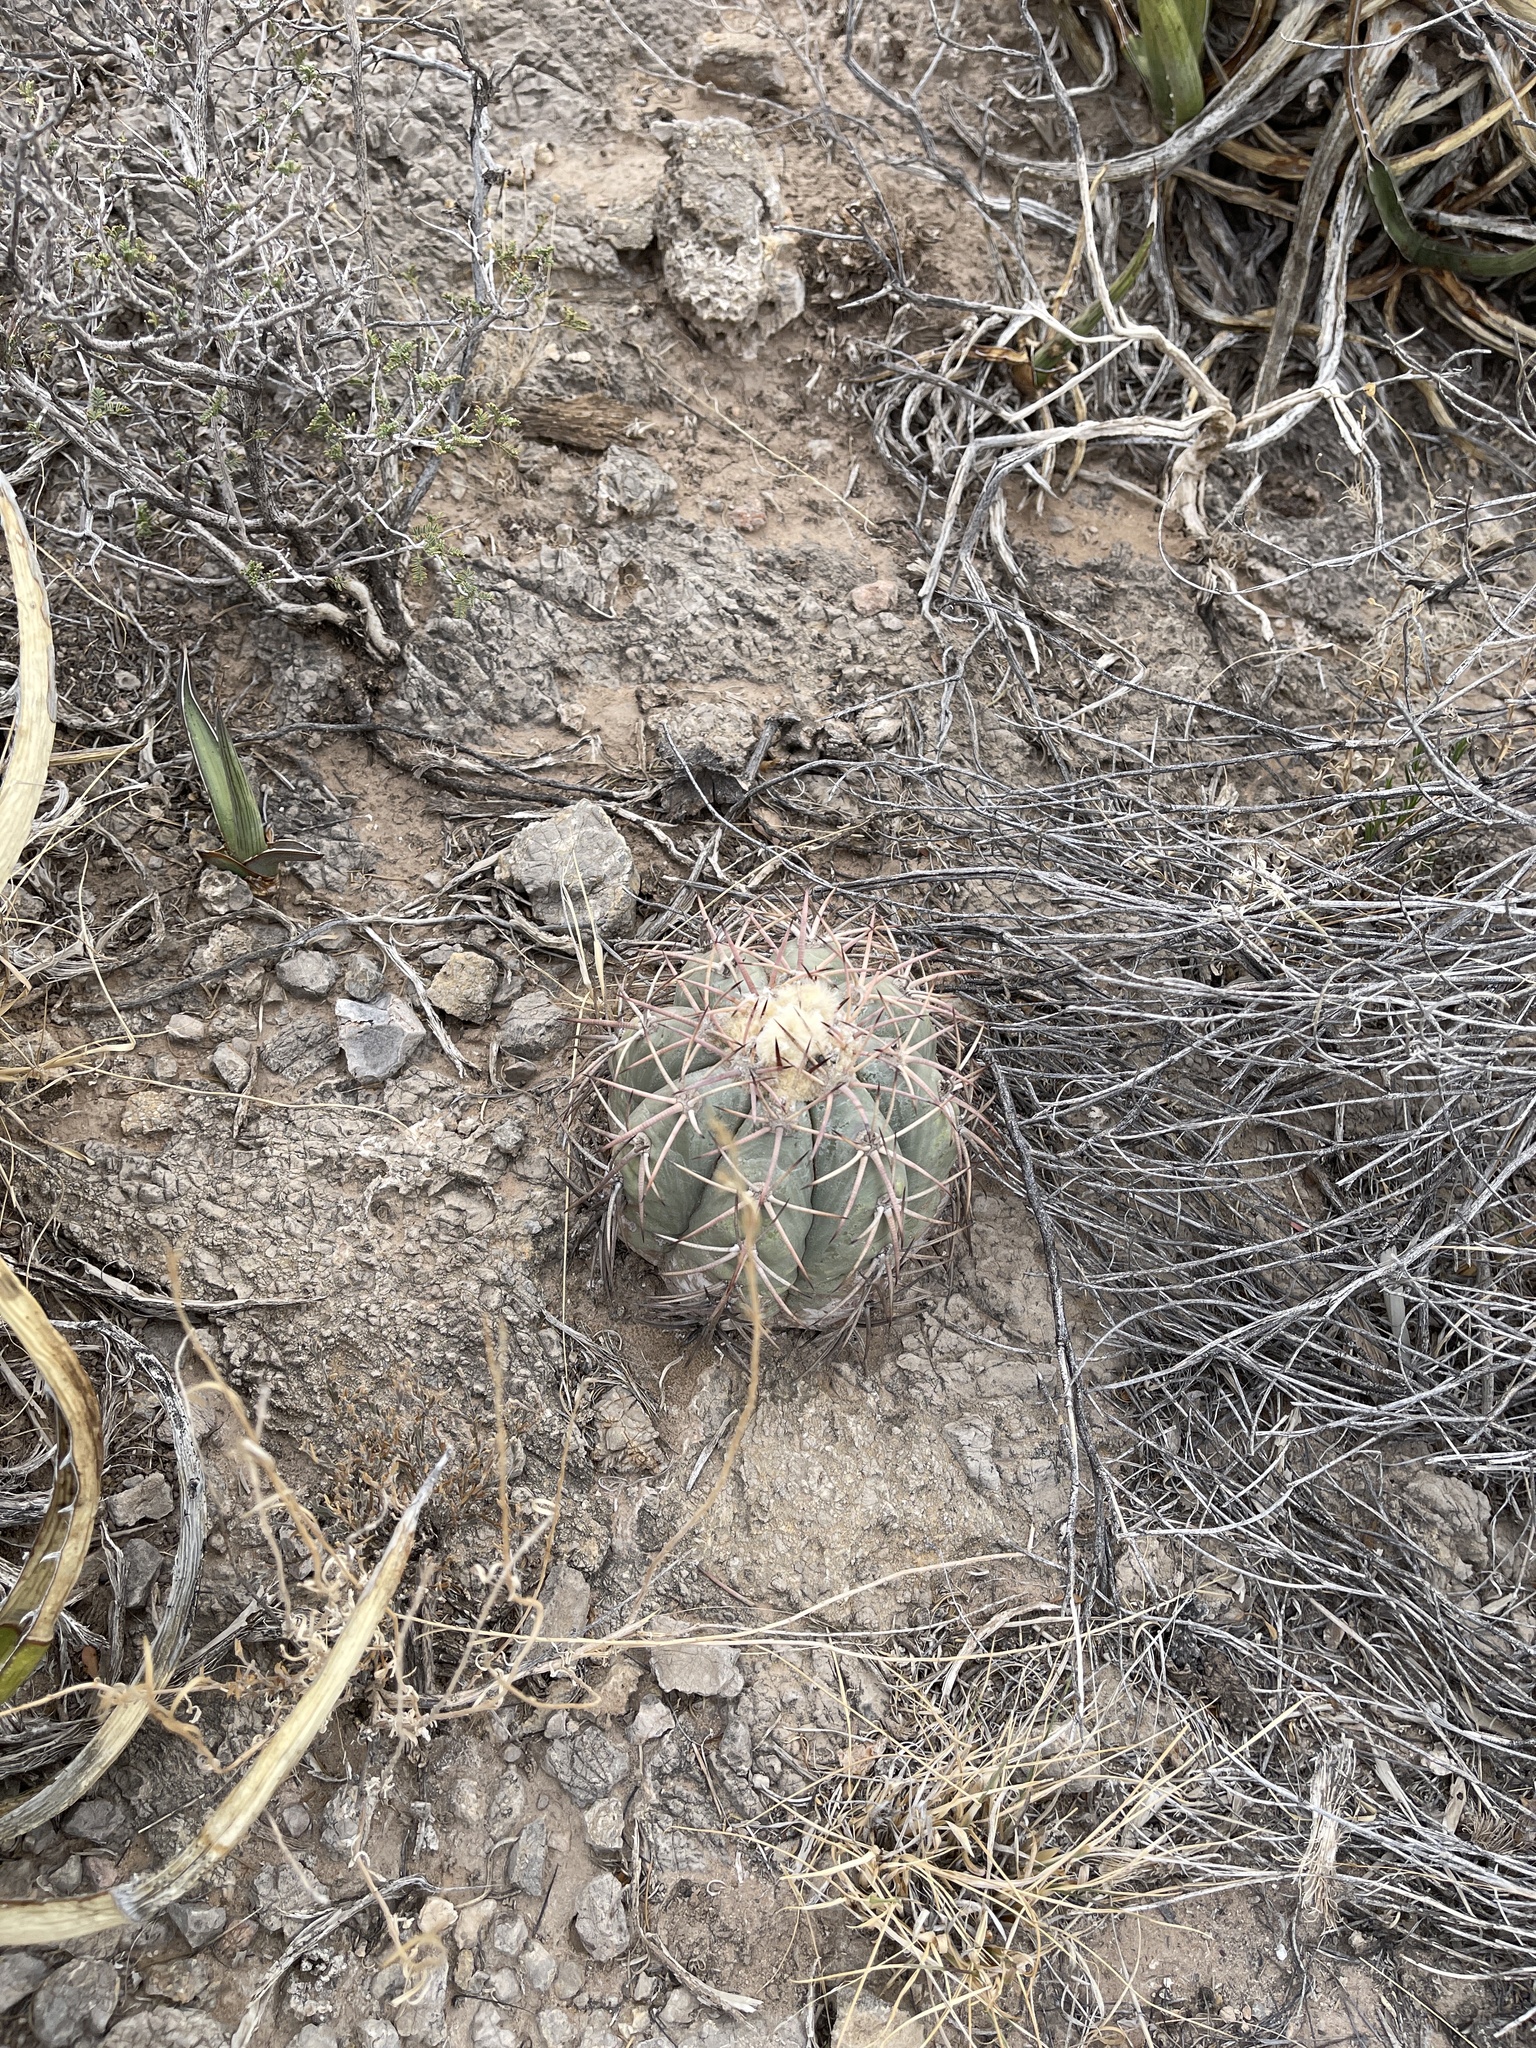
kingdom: Plantae
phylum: Tracheophyta
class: Magnoliopsida
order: Caryophyllales
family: Cactaceae
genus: Echinocactus
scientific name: Echinocactus horizonthalonius
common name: Devilshead
